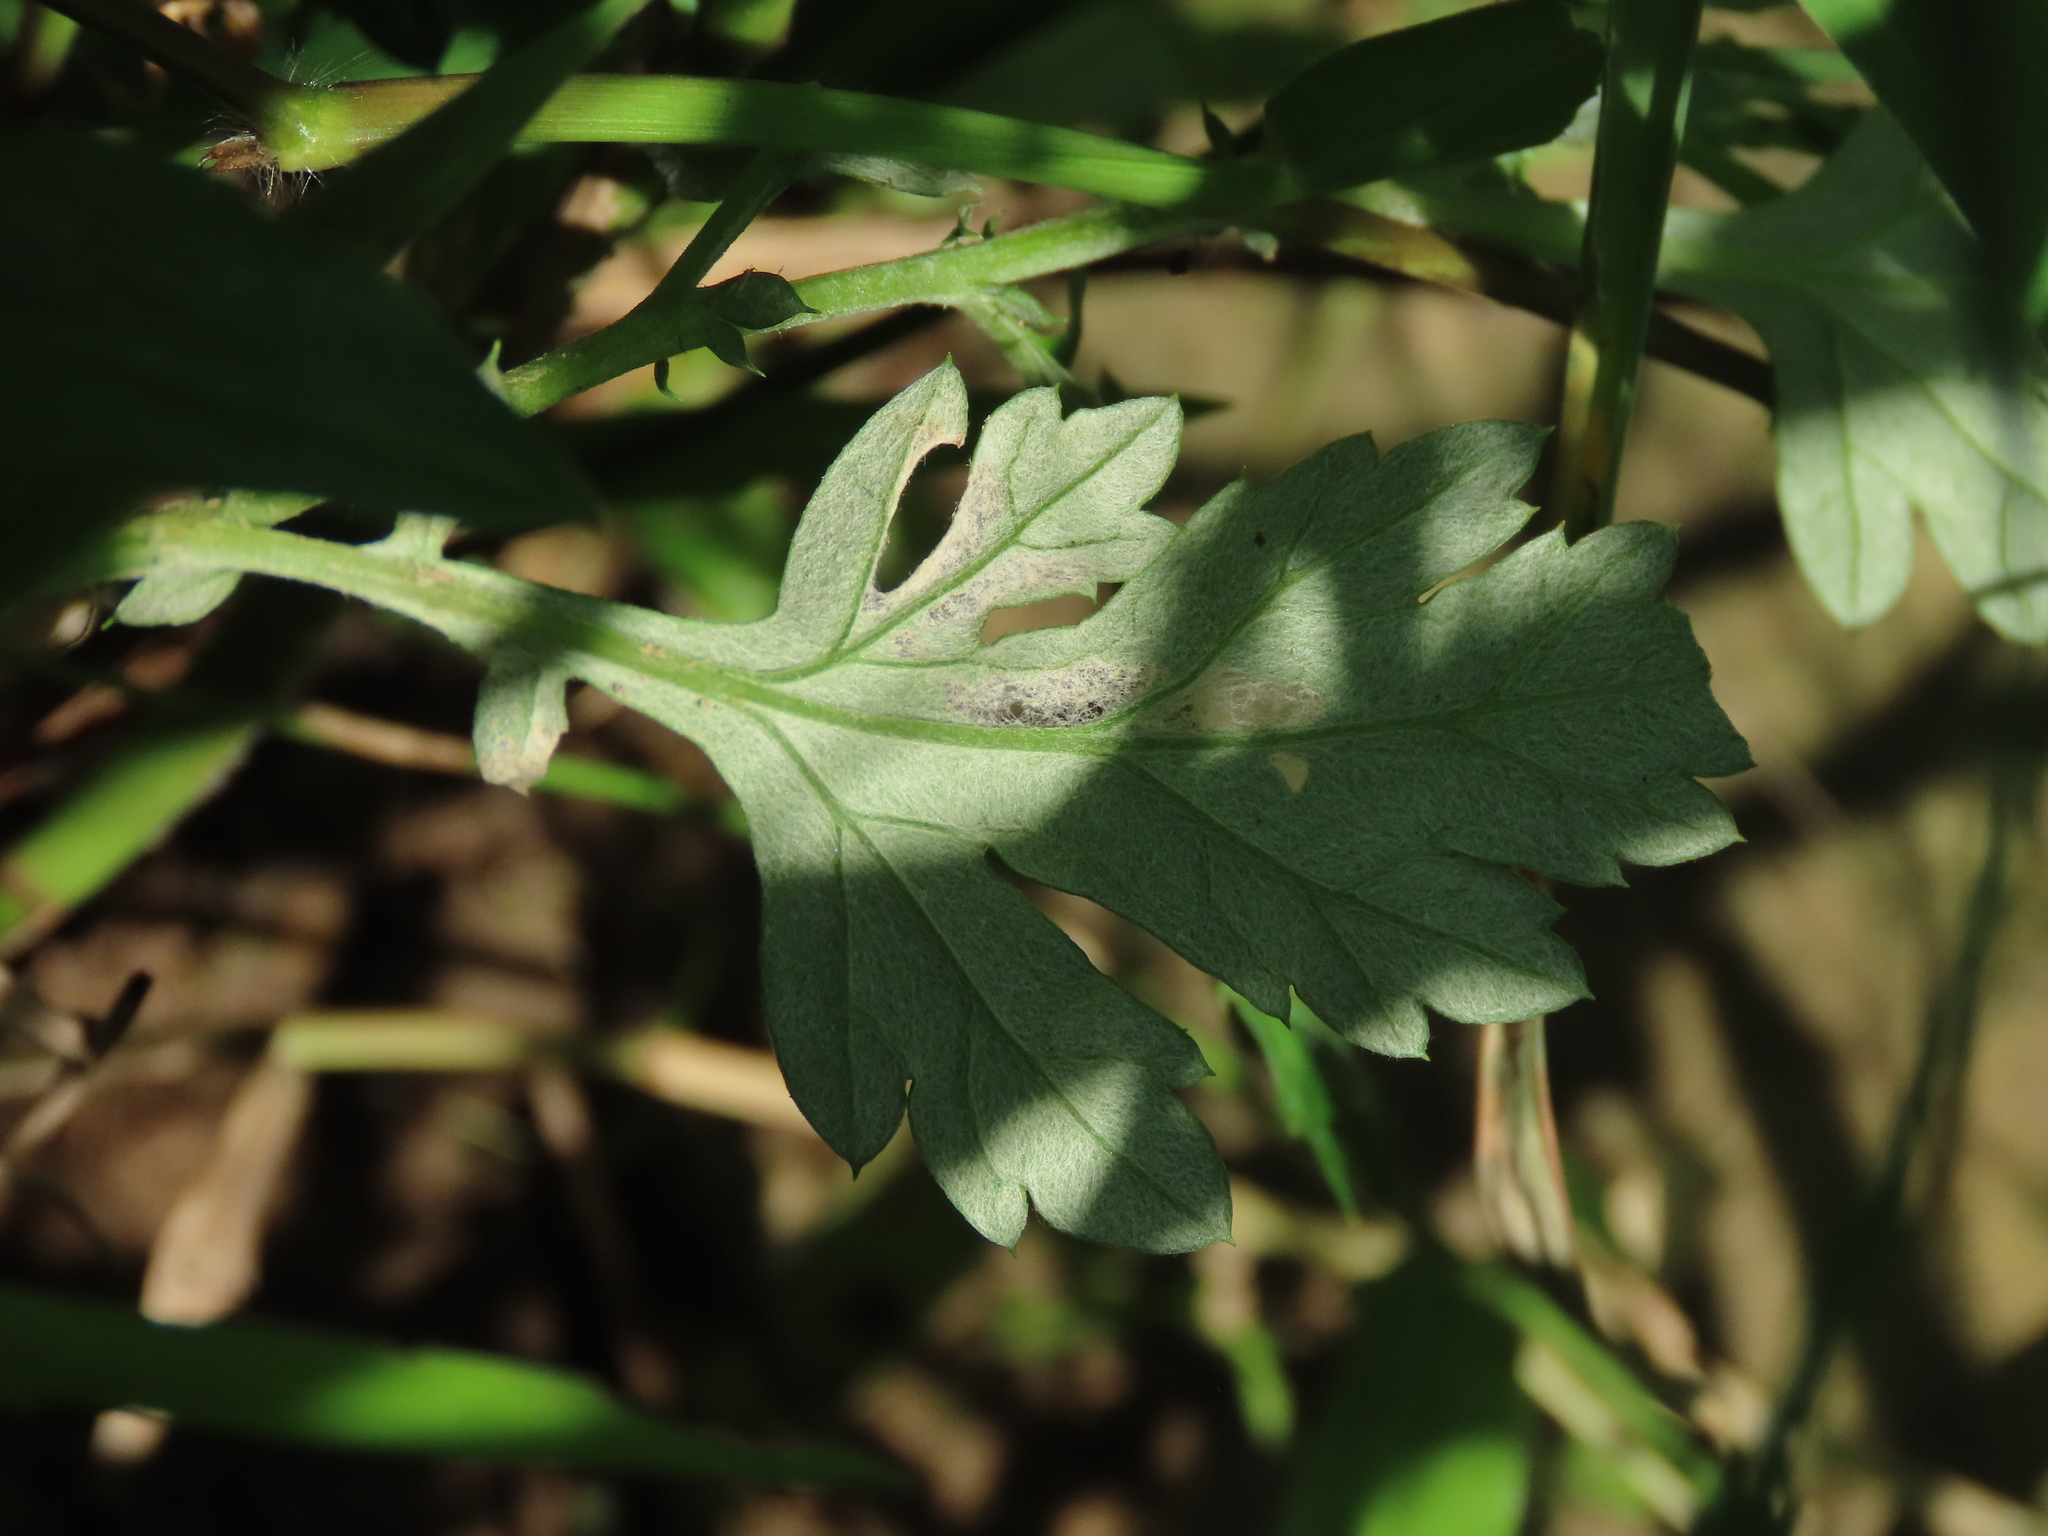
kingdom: Plantae
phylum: Tracheophyta
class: Magnoliopsida
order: Asterales
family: Asteraceae
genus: Artemisia
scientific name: Artemisia argyi
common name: Chinese mugwort
